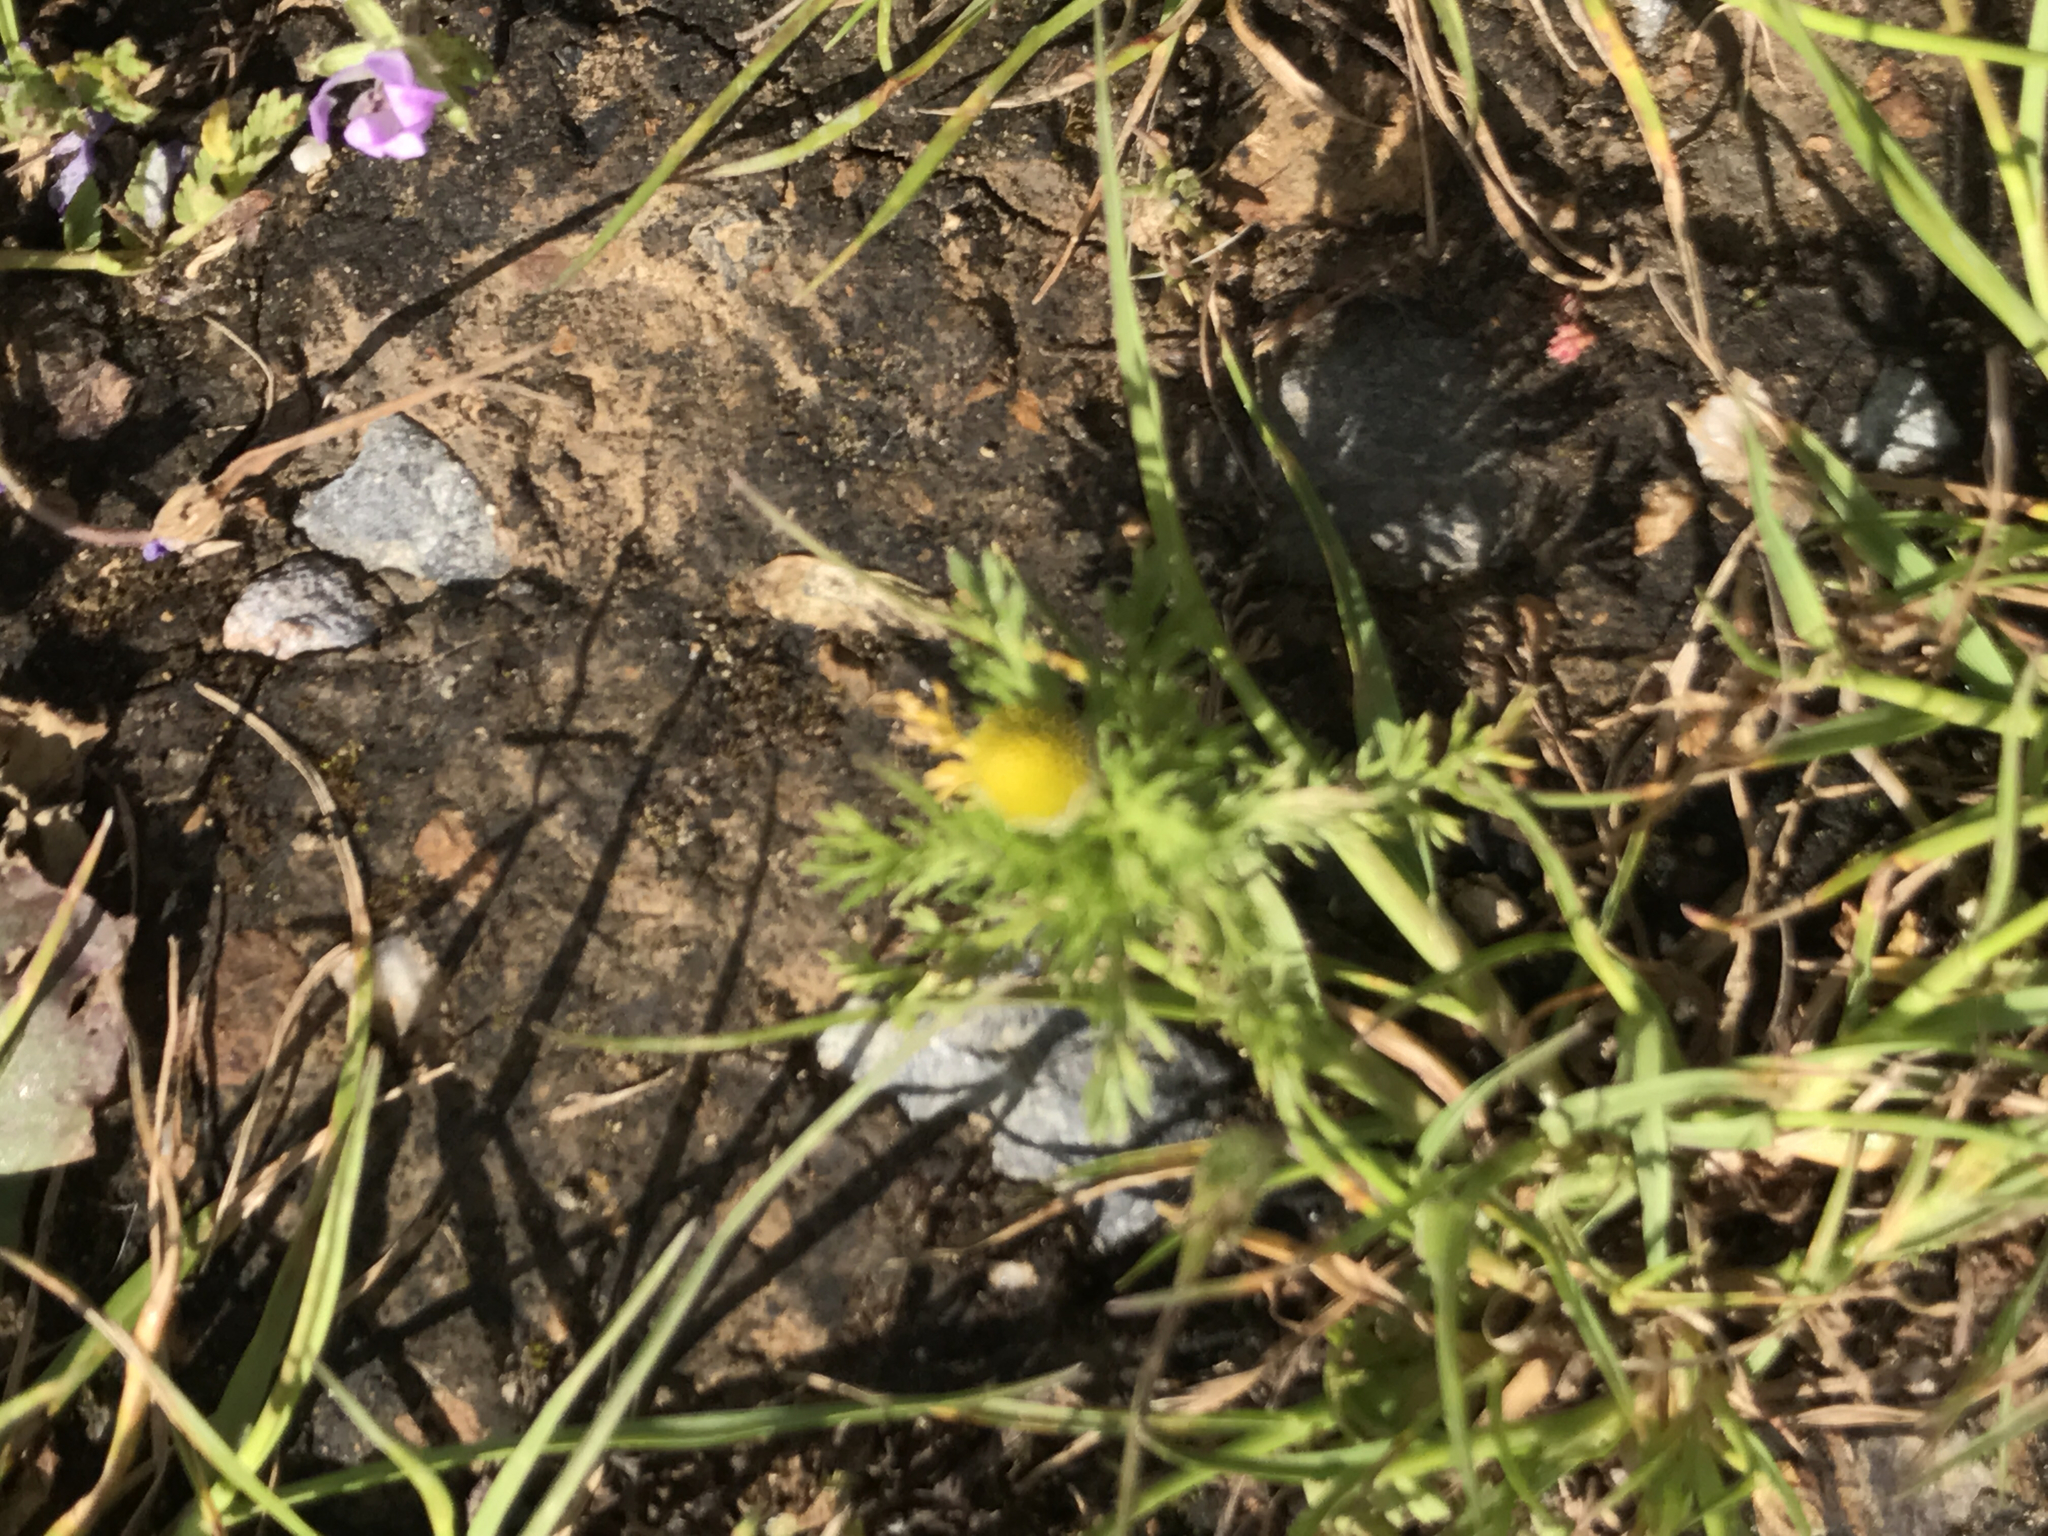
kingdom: Plantae
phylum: Tracheophyta
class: Magnoliopsida
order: Asterales
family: Asteraceae
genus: Matricaria
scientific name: Matricaria discoidea
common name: Disc mayweed
